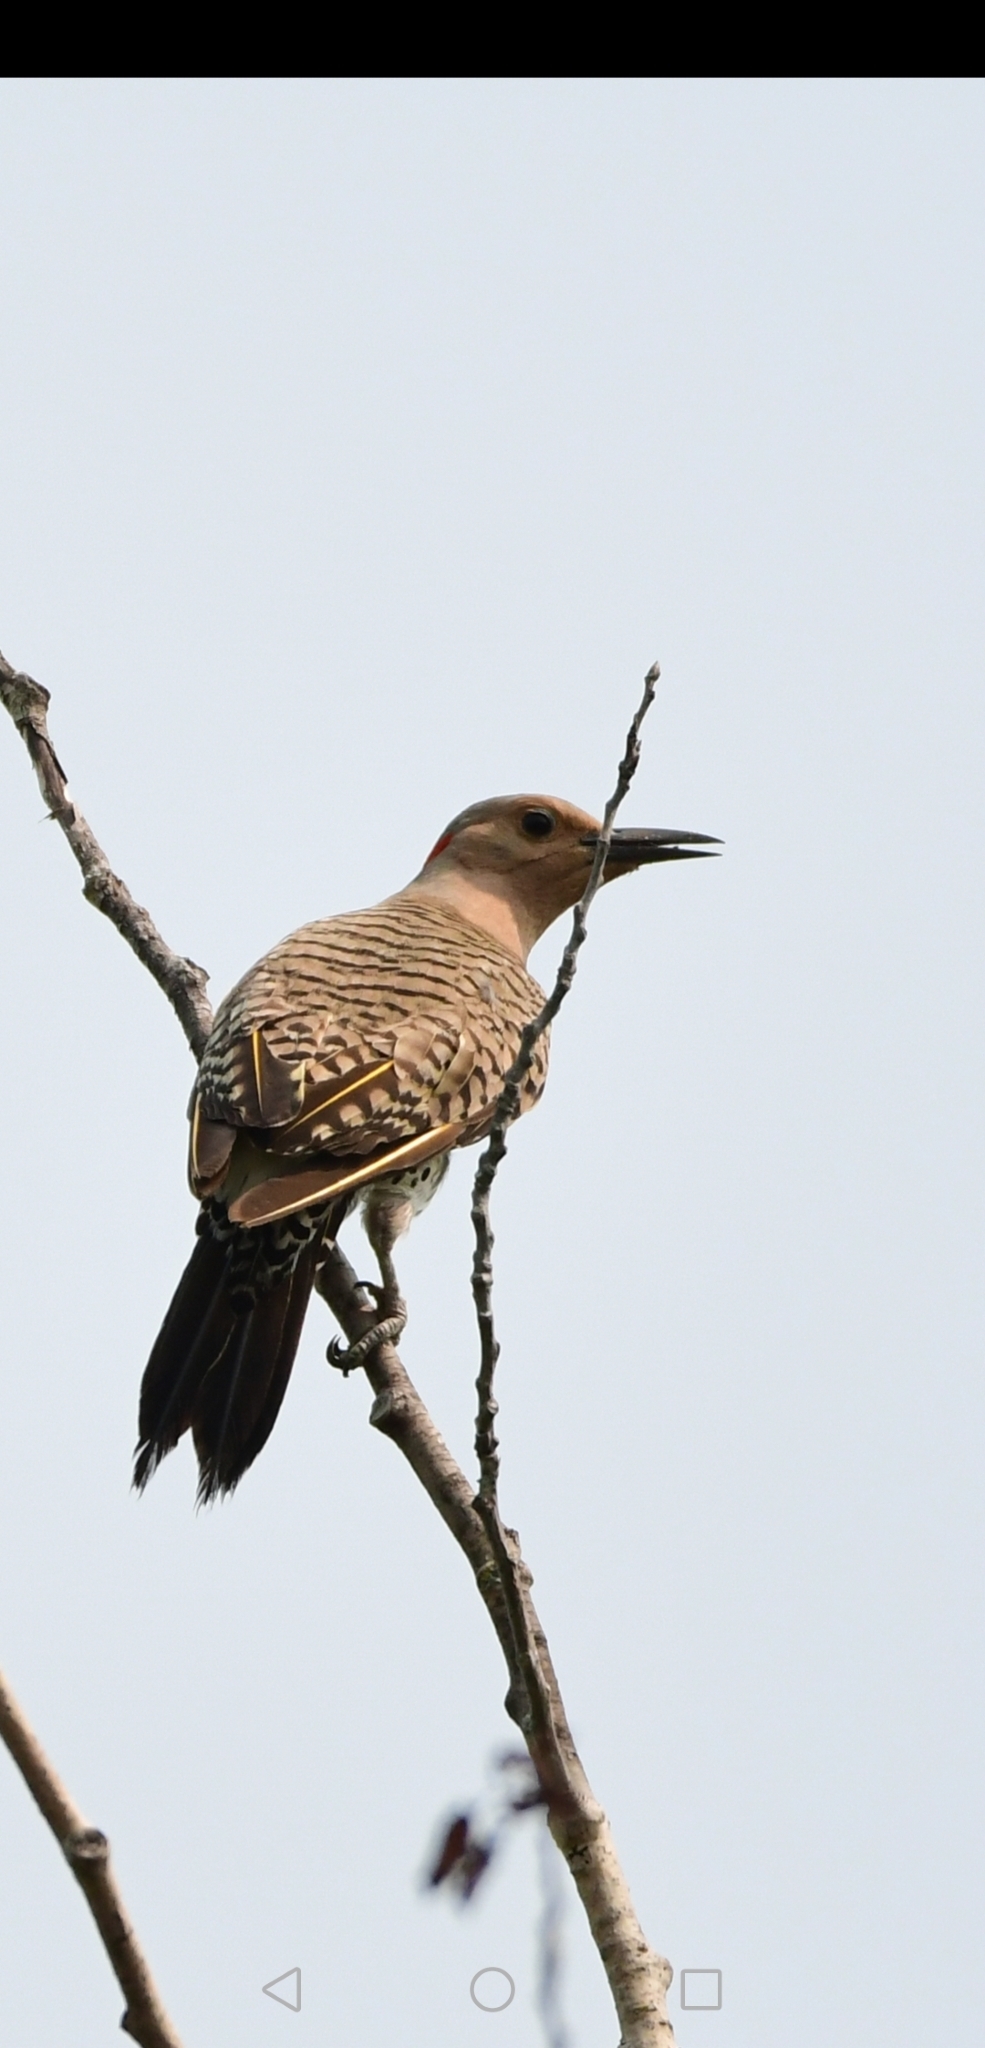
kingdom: Animalia
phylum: Chordata
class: Aves
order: Piciformes
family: Picidae
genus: Colaptes
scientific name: Colaptes auratus
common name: Northern flicker
